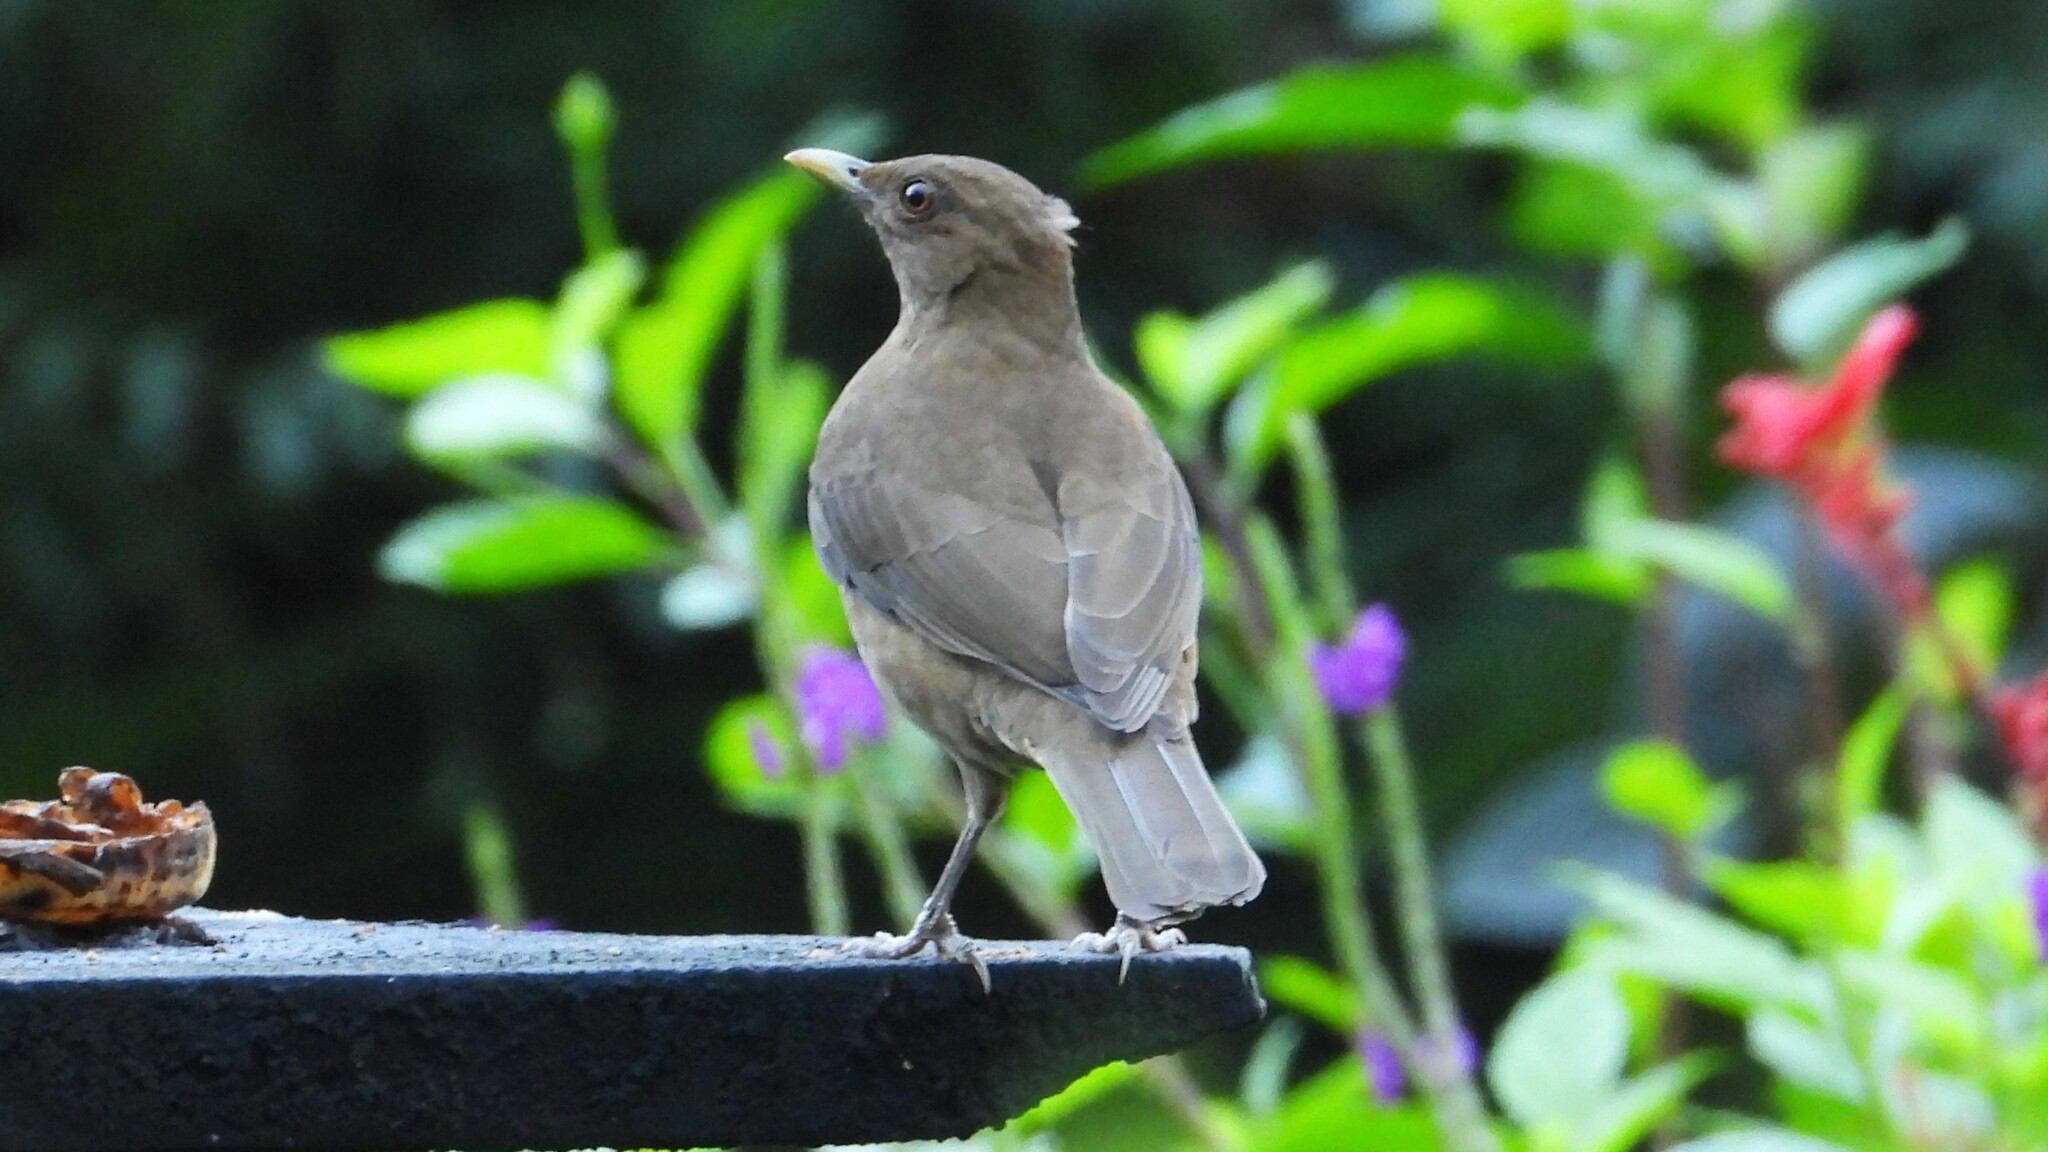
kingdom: Animalia
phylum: Chordata
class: Aves
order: Passeriformes
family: Turdidae
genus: Turdus
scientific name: Turdus grayi
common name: Clay-colored thrush
